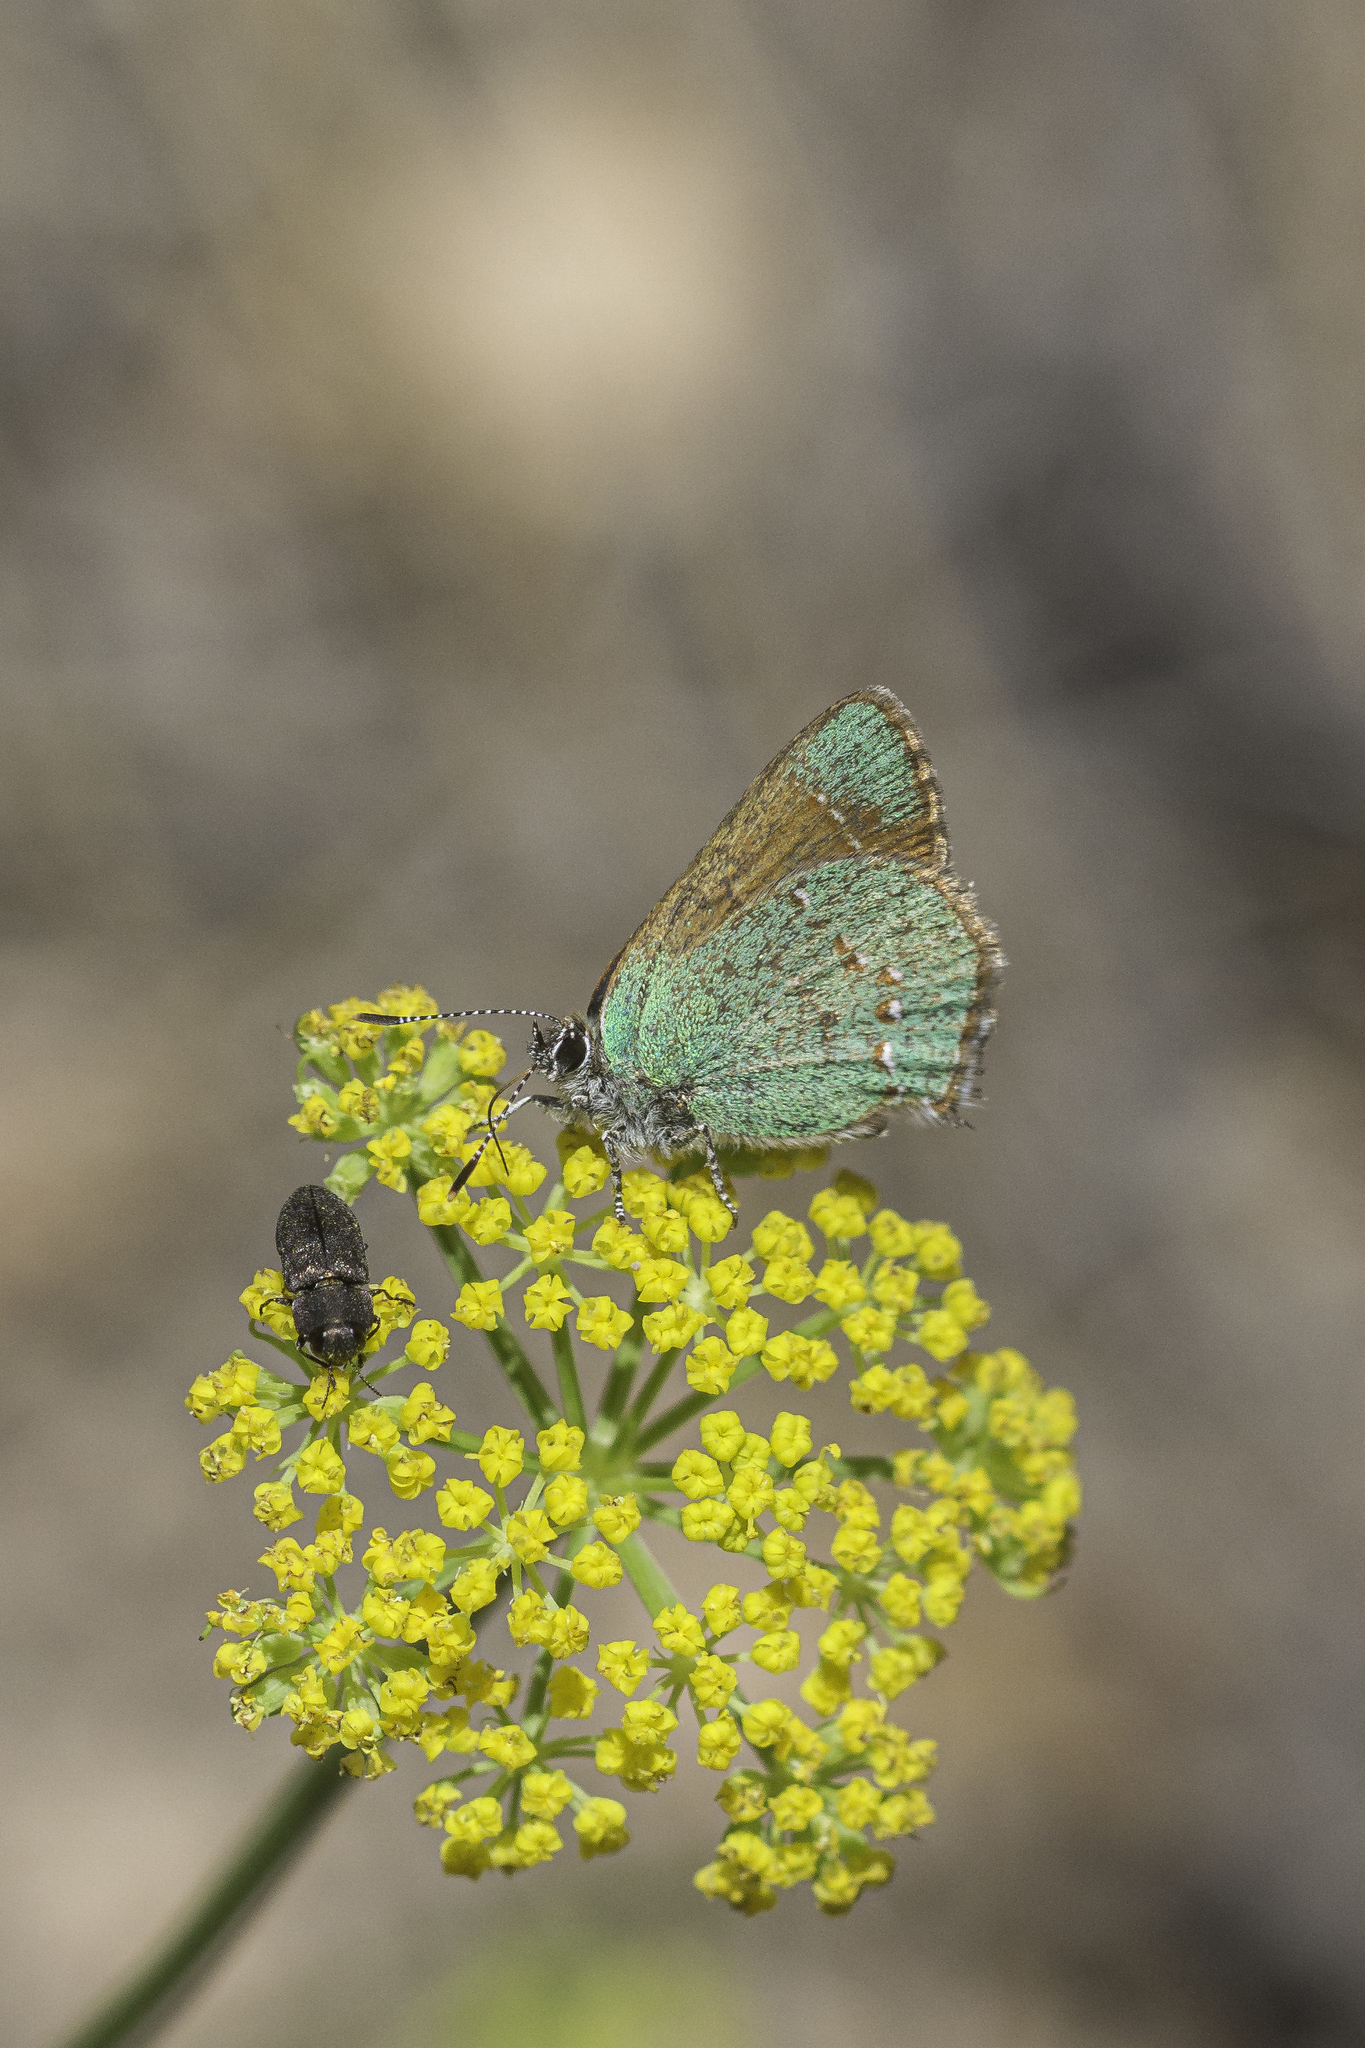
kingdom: Animalia
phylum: Arthropoda
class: Insecta
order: Lepidoptera
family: Lycaenidae
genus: Callophrys
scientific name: Callophrys affinis
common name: Western green hairstreak
